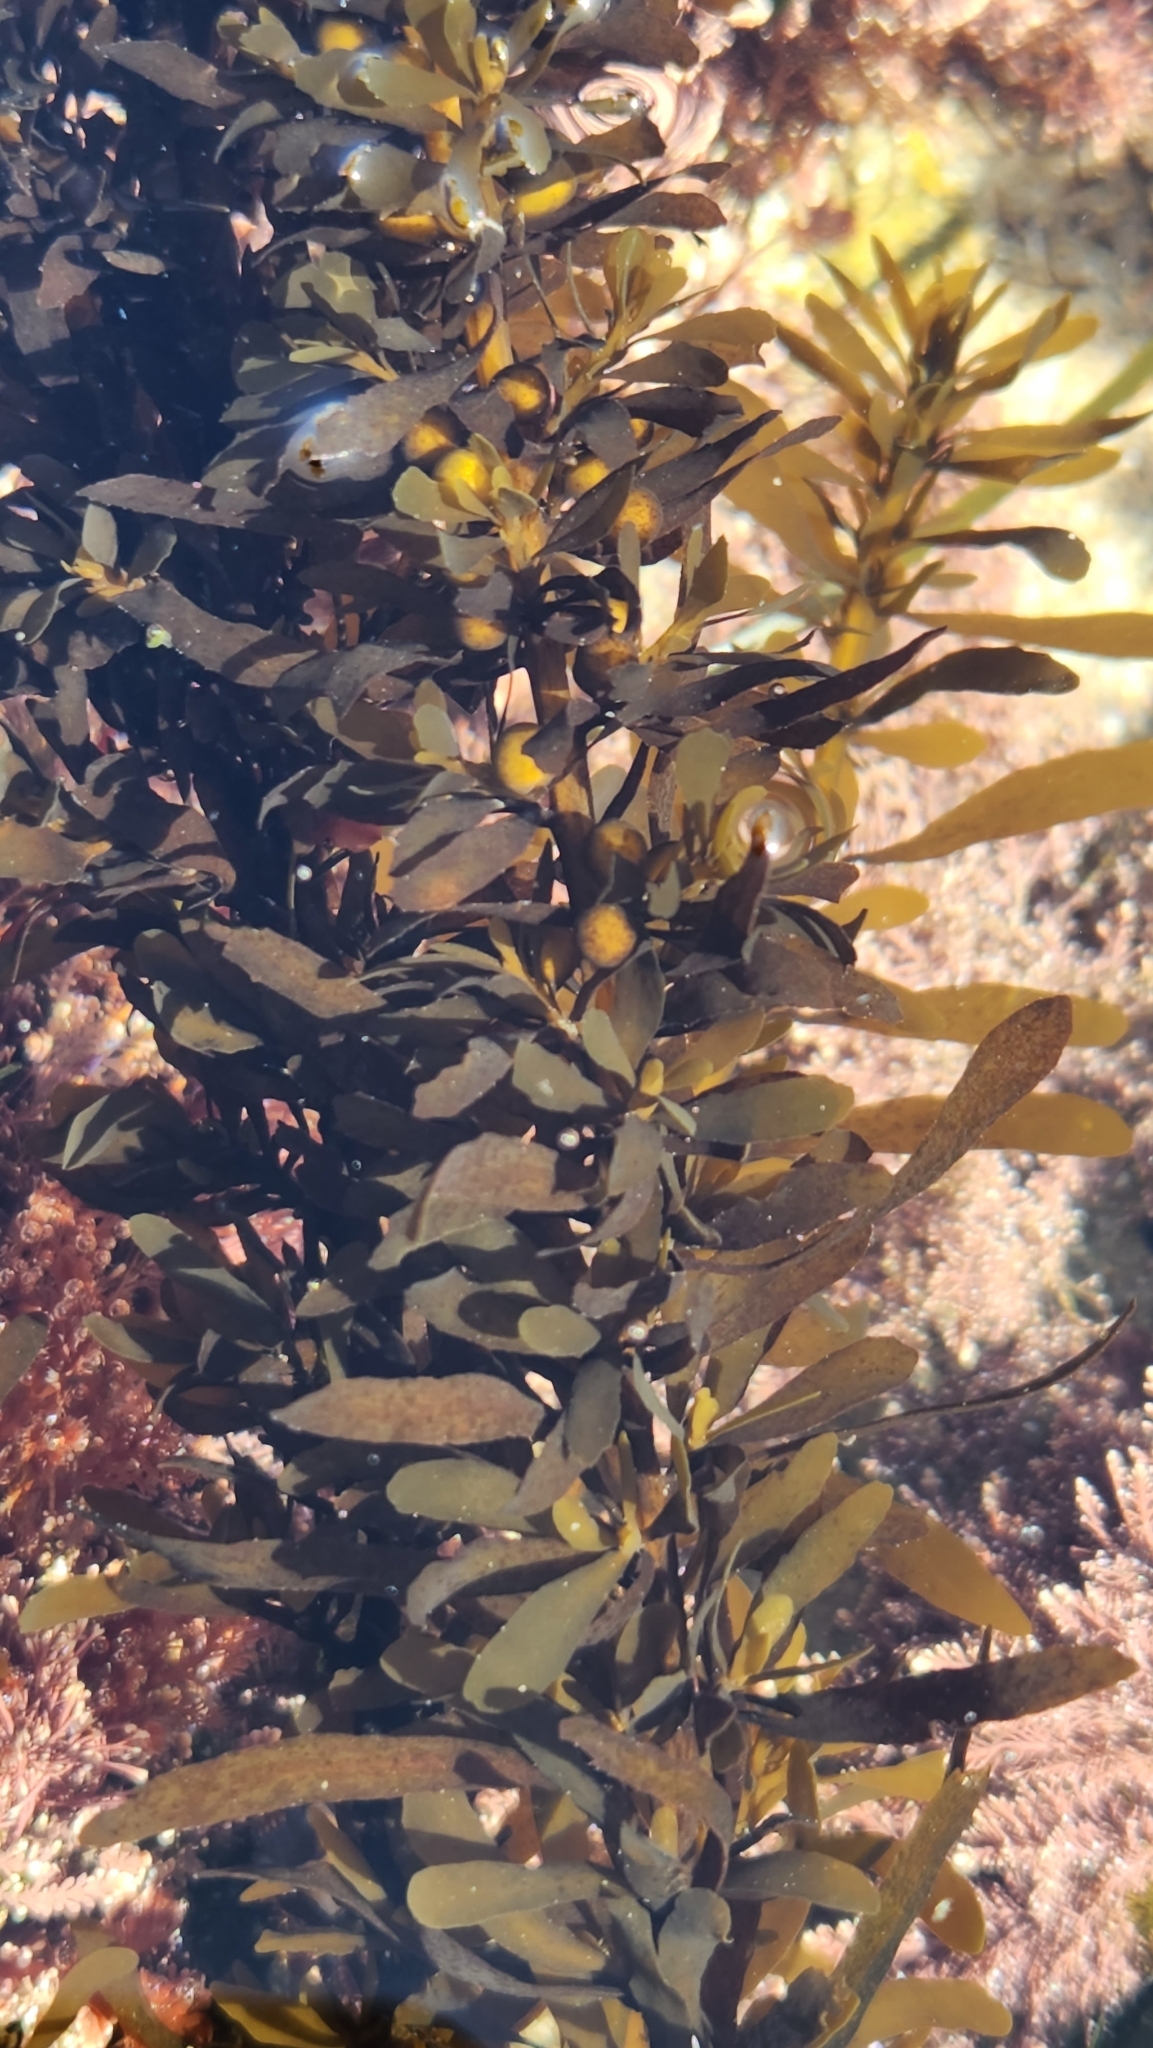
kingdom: Chromista
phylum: Ochrophyta
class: Phaeophyceae
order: Fucales
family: Sargassaceae
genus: Sargassum
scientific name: Sargassum muticum
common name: Japweed
